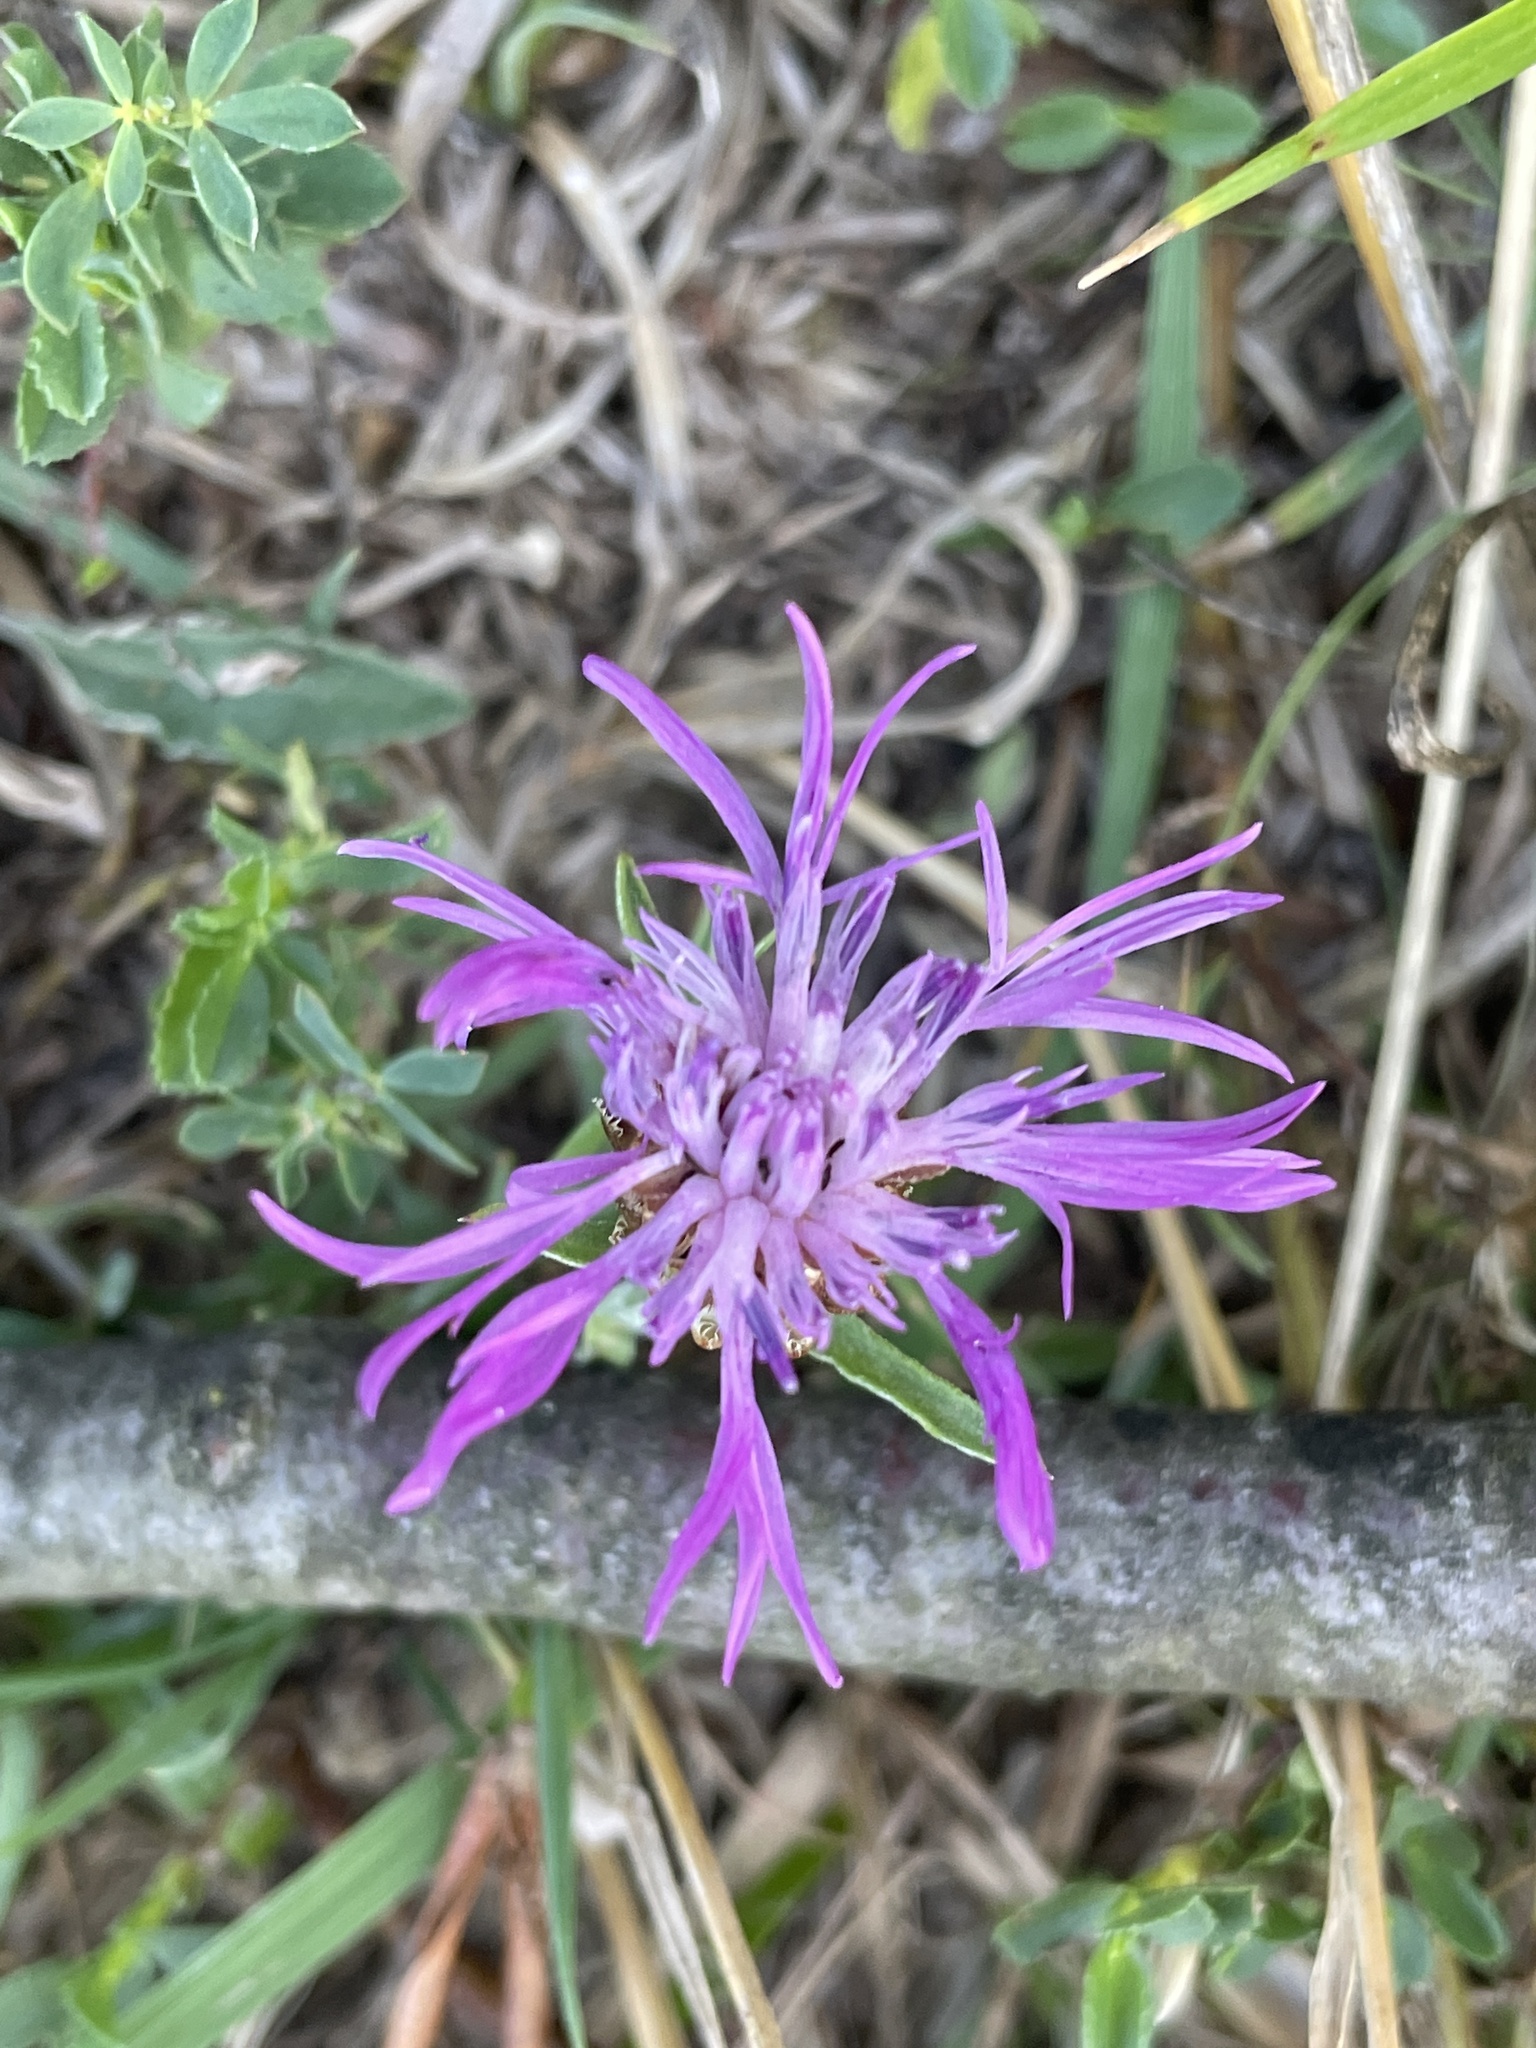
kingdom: Plantae
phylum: Tracheophyta
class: Magnoliopsida
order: Asterales
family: Asteraceae
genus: Centaurea
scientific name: Centaurea jacea
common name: Brown knapweed
